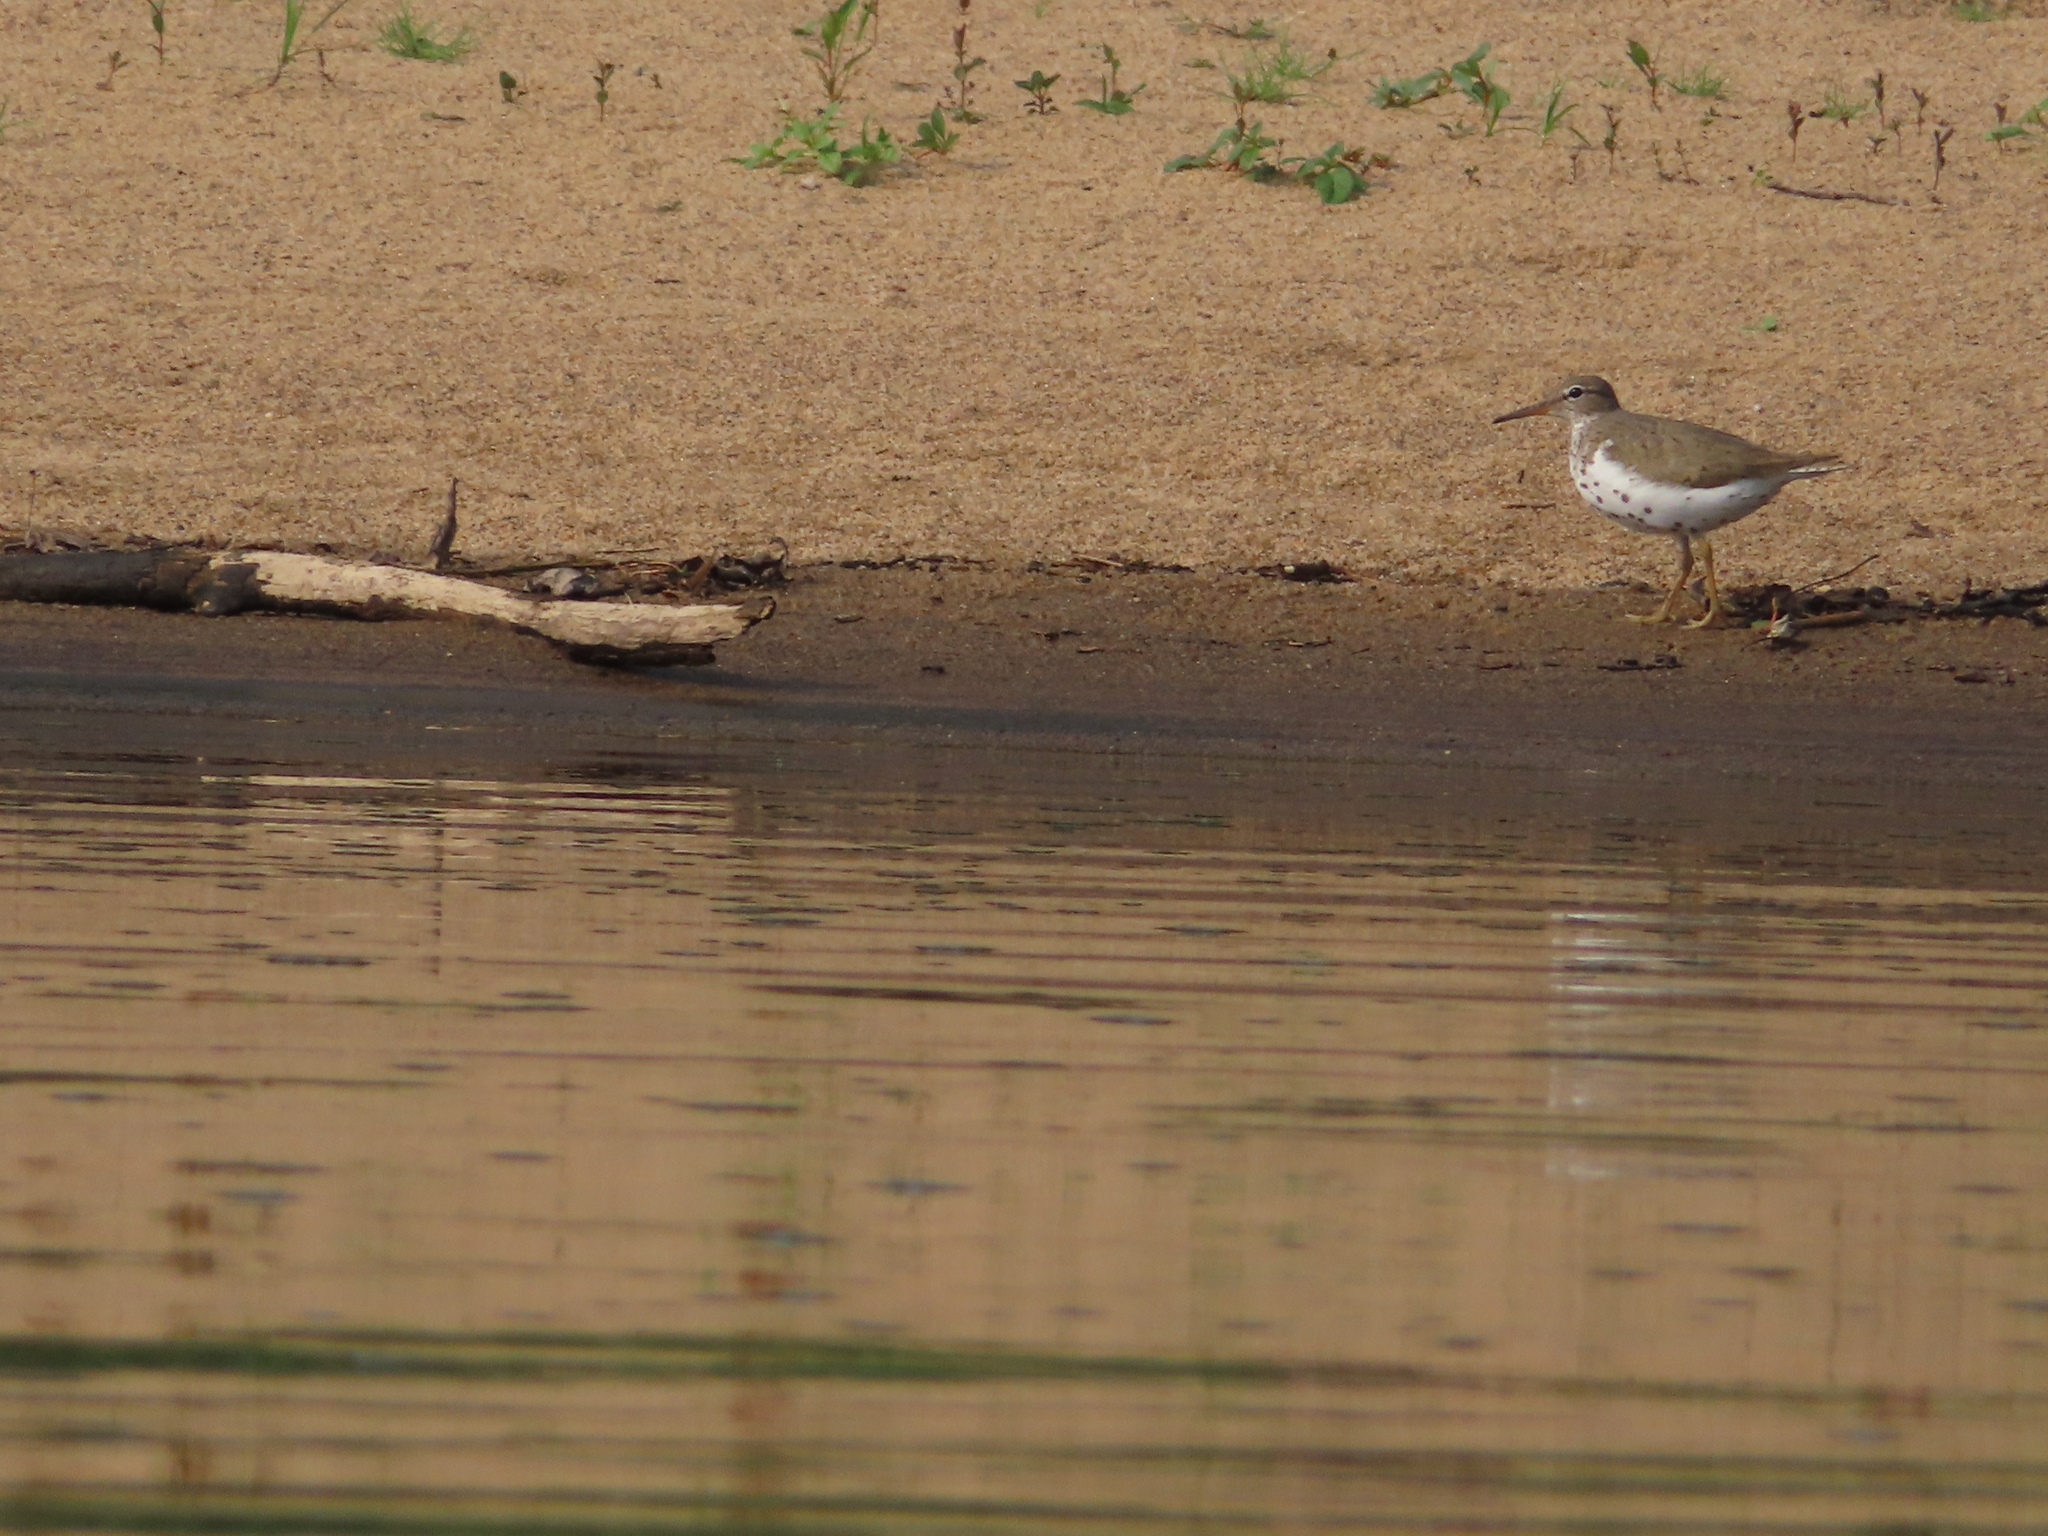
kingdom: Animalia
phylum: Chordata
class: Aves
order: Charadriiformes
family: Scolopacidae
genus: Actitis
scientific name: Actitis macularius
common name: Spotted sandpiper
